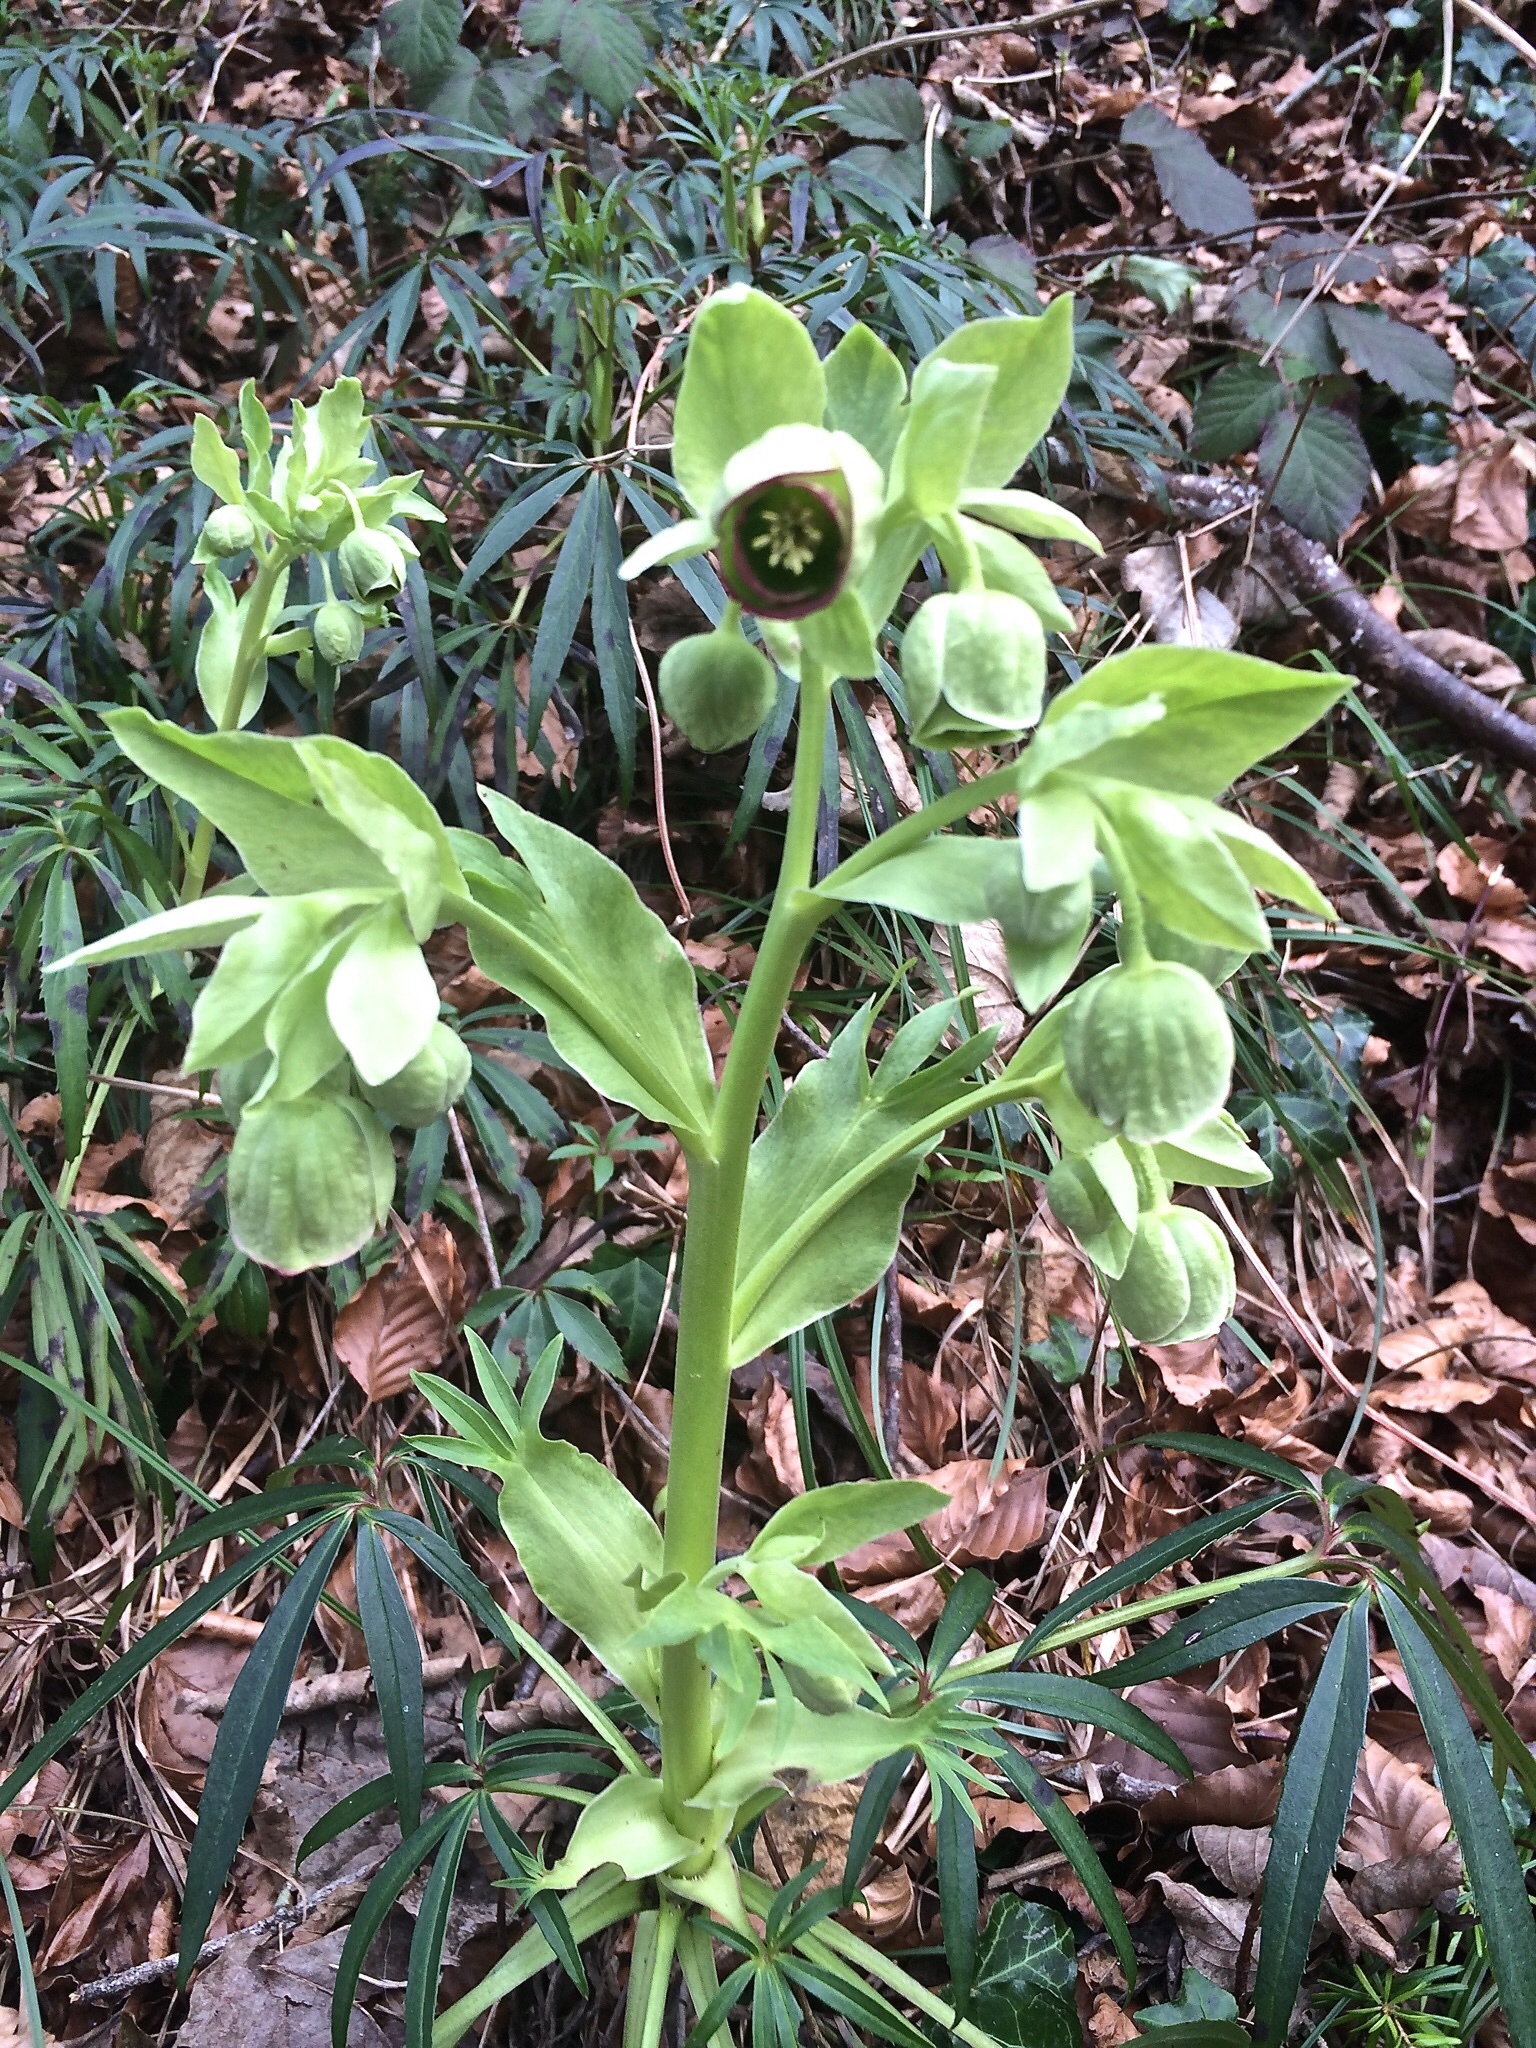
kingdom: Plantae
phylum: Tracheophyta
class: Magnoliopsida
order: Ranunculales
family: Ranunculaceae
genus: Helleborus
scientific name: Helleborus foetidus
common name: Stinking hellebore
